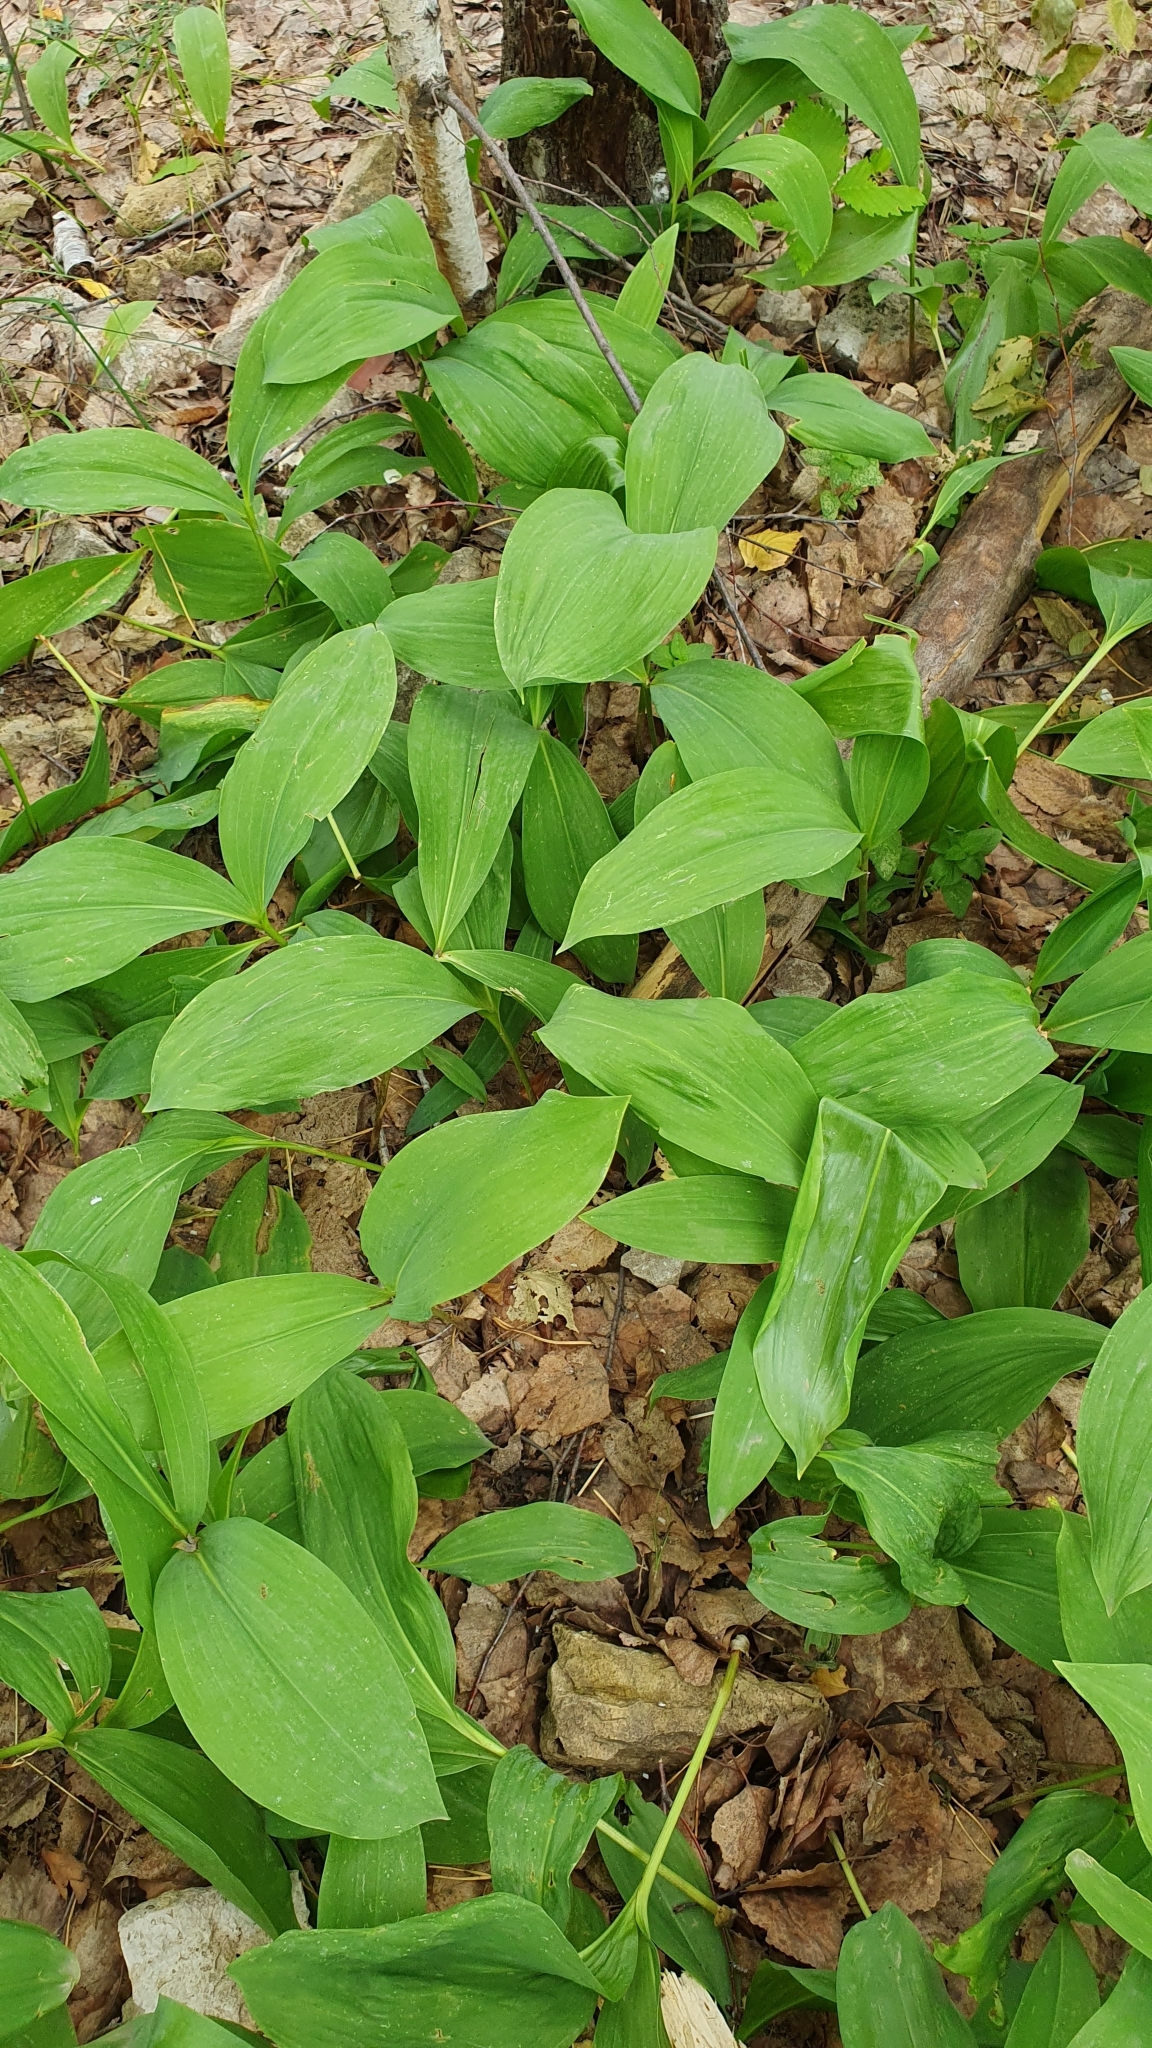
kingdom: Plantae
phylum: Tracheophyta
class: Liliopsida
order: Asparagales
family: Asparagaceae
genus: Convallaria
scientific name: Convallaria majalis
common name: Lily-of-the-valley
